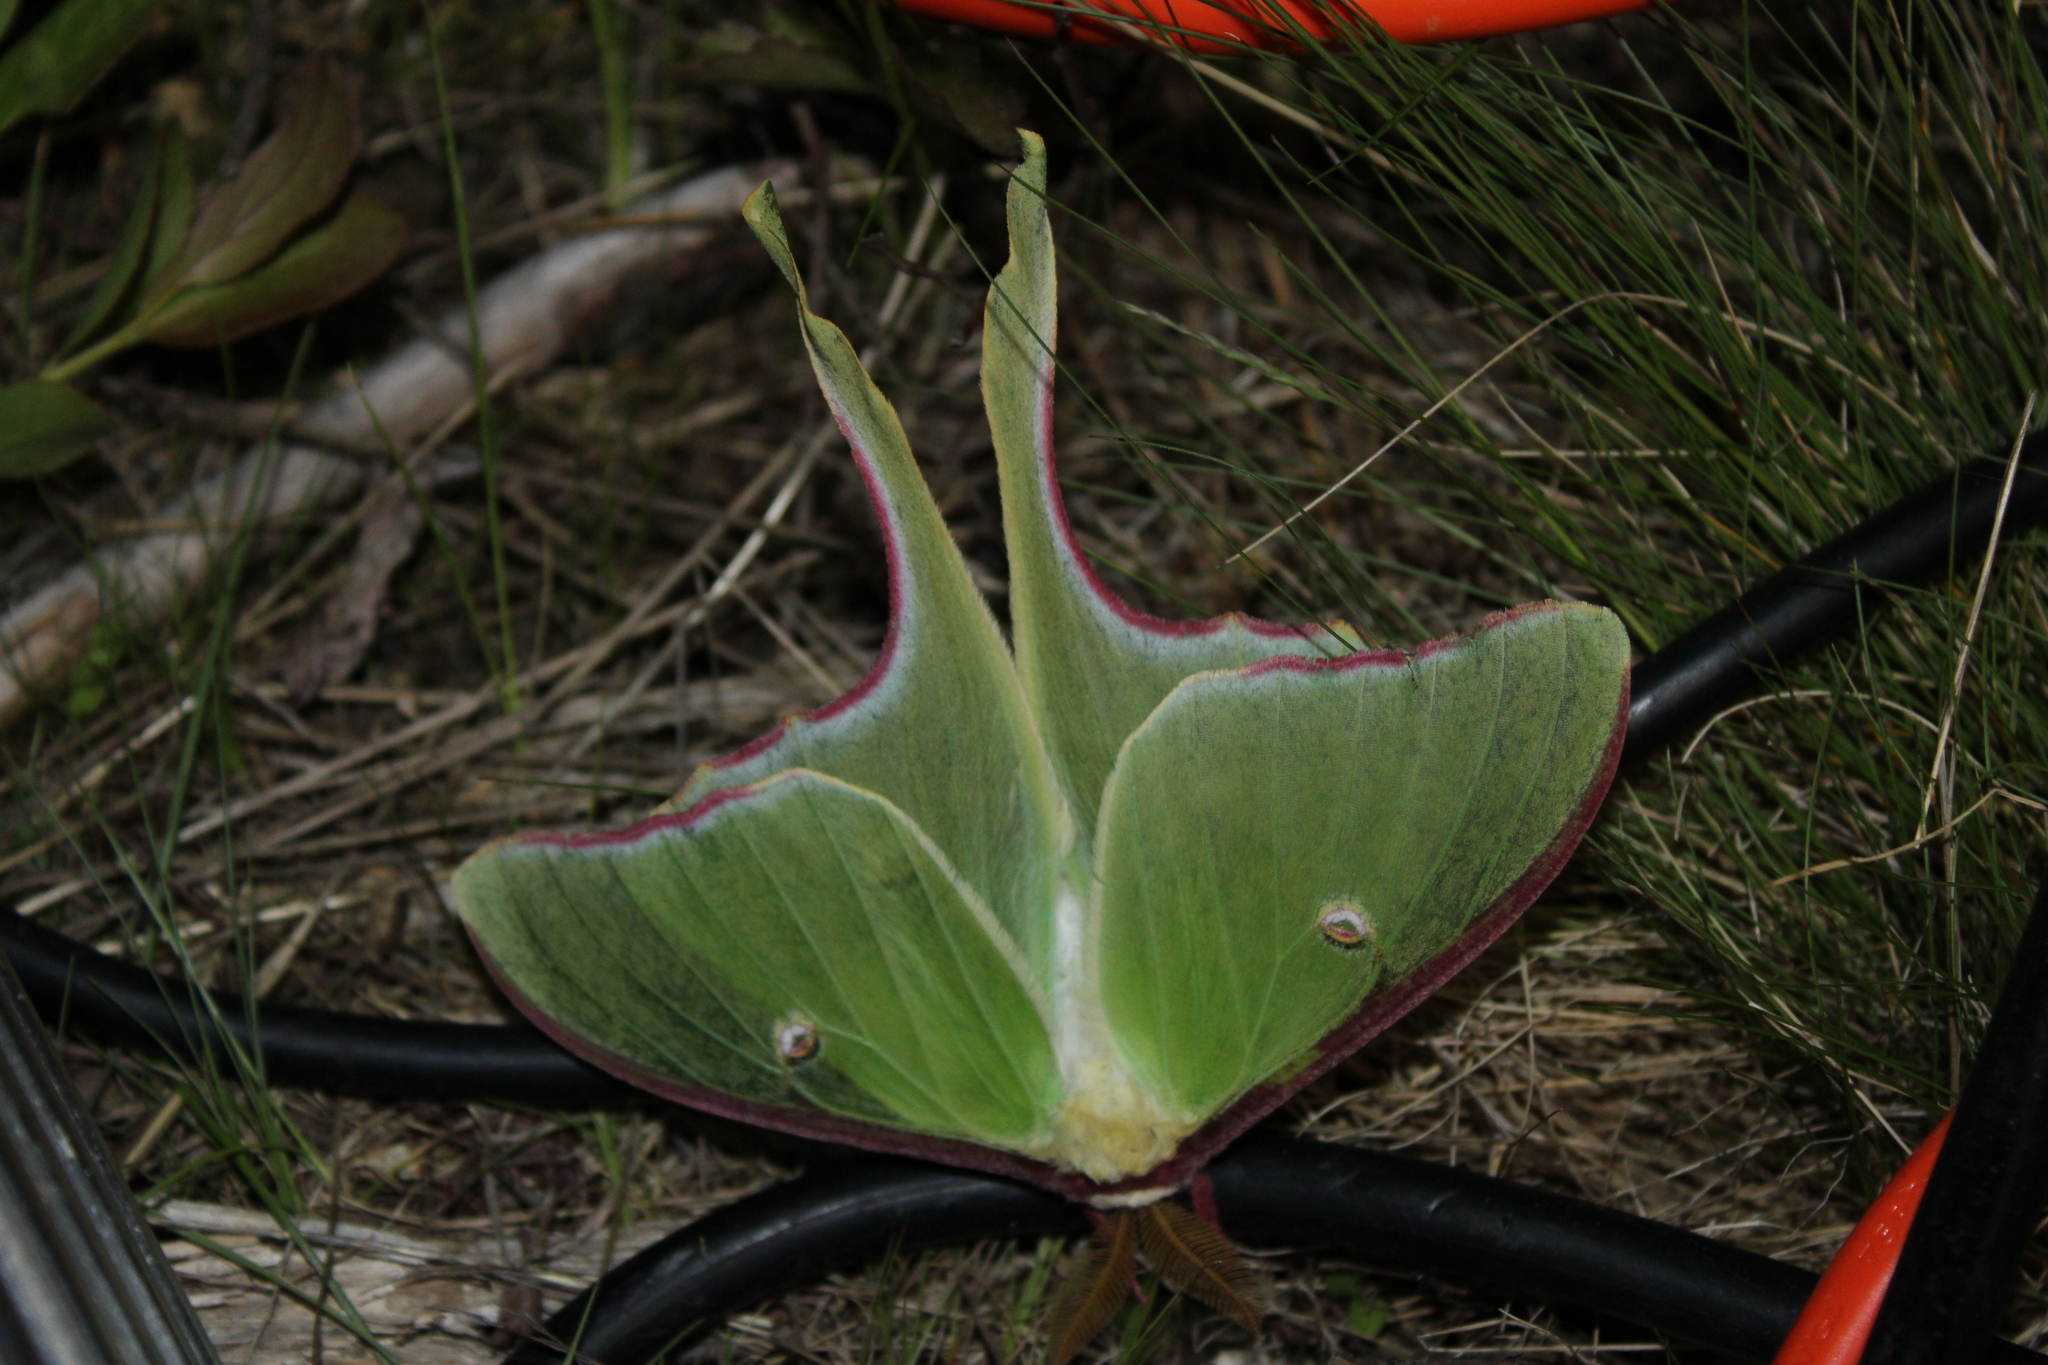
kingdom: Animalia
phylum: Arthropoda
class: Insecta
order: Lepidoptera
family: Saturniidae
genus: Actias
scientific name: Actias luna
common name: Luna moth
